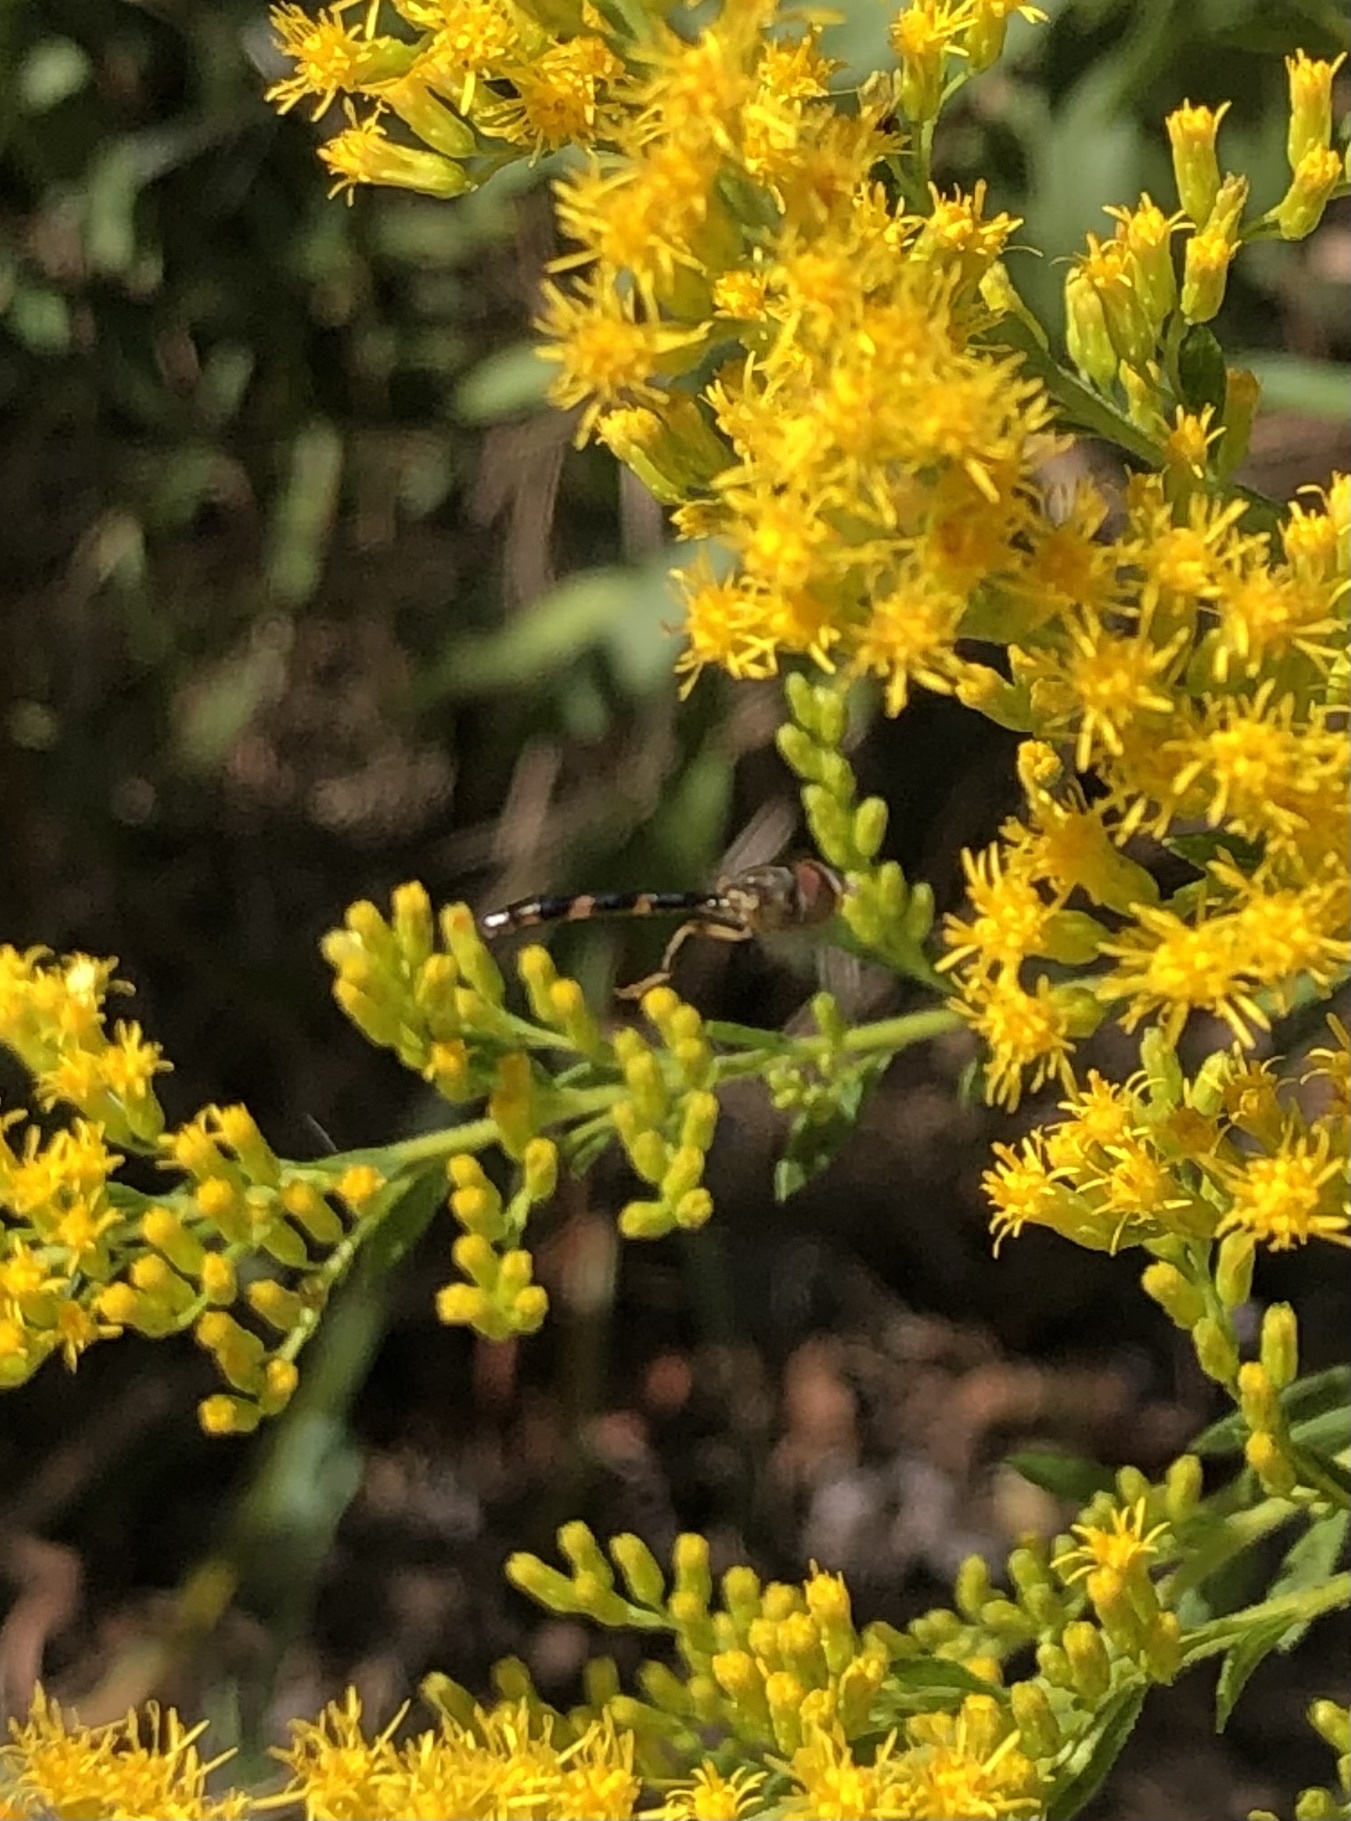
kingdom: Animalia
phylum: Arthropoda
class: Insecta
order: Diptera
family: Syrphidae
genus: Hypocritanus
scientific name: Hypocritanus fascipennis
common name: Eastern band-winged hover fly
